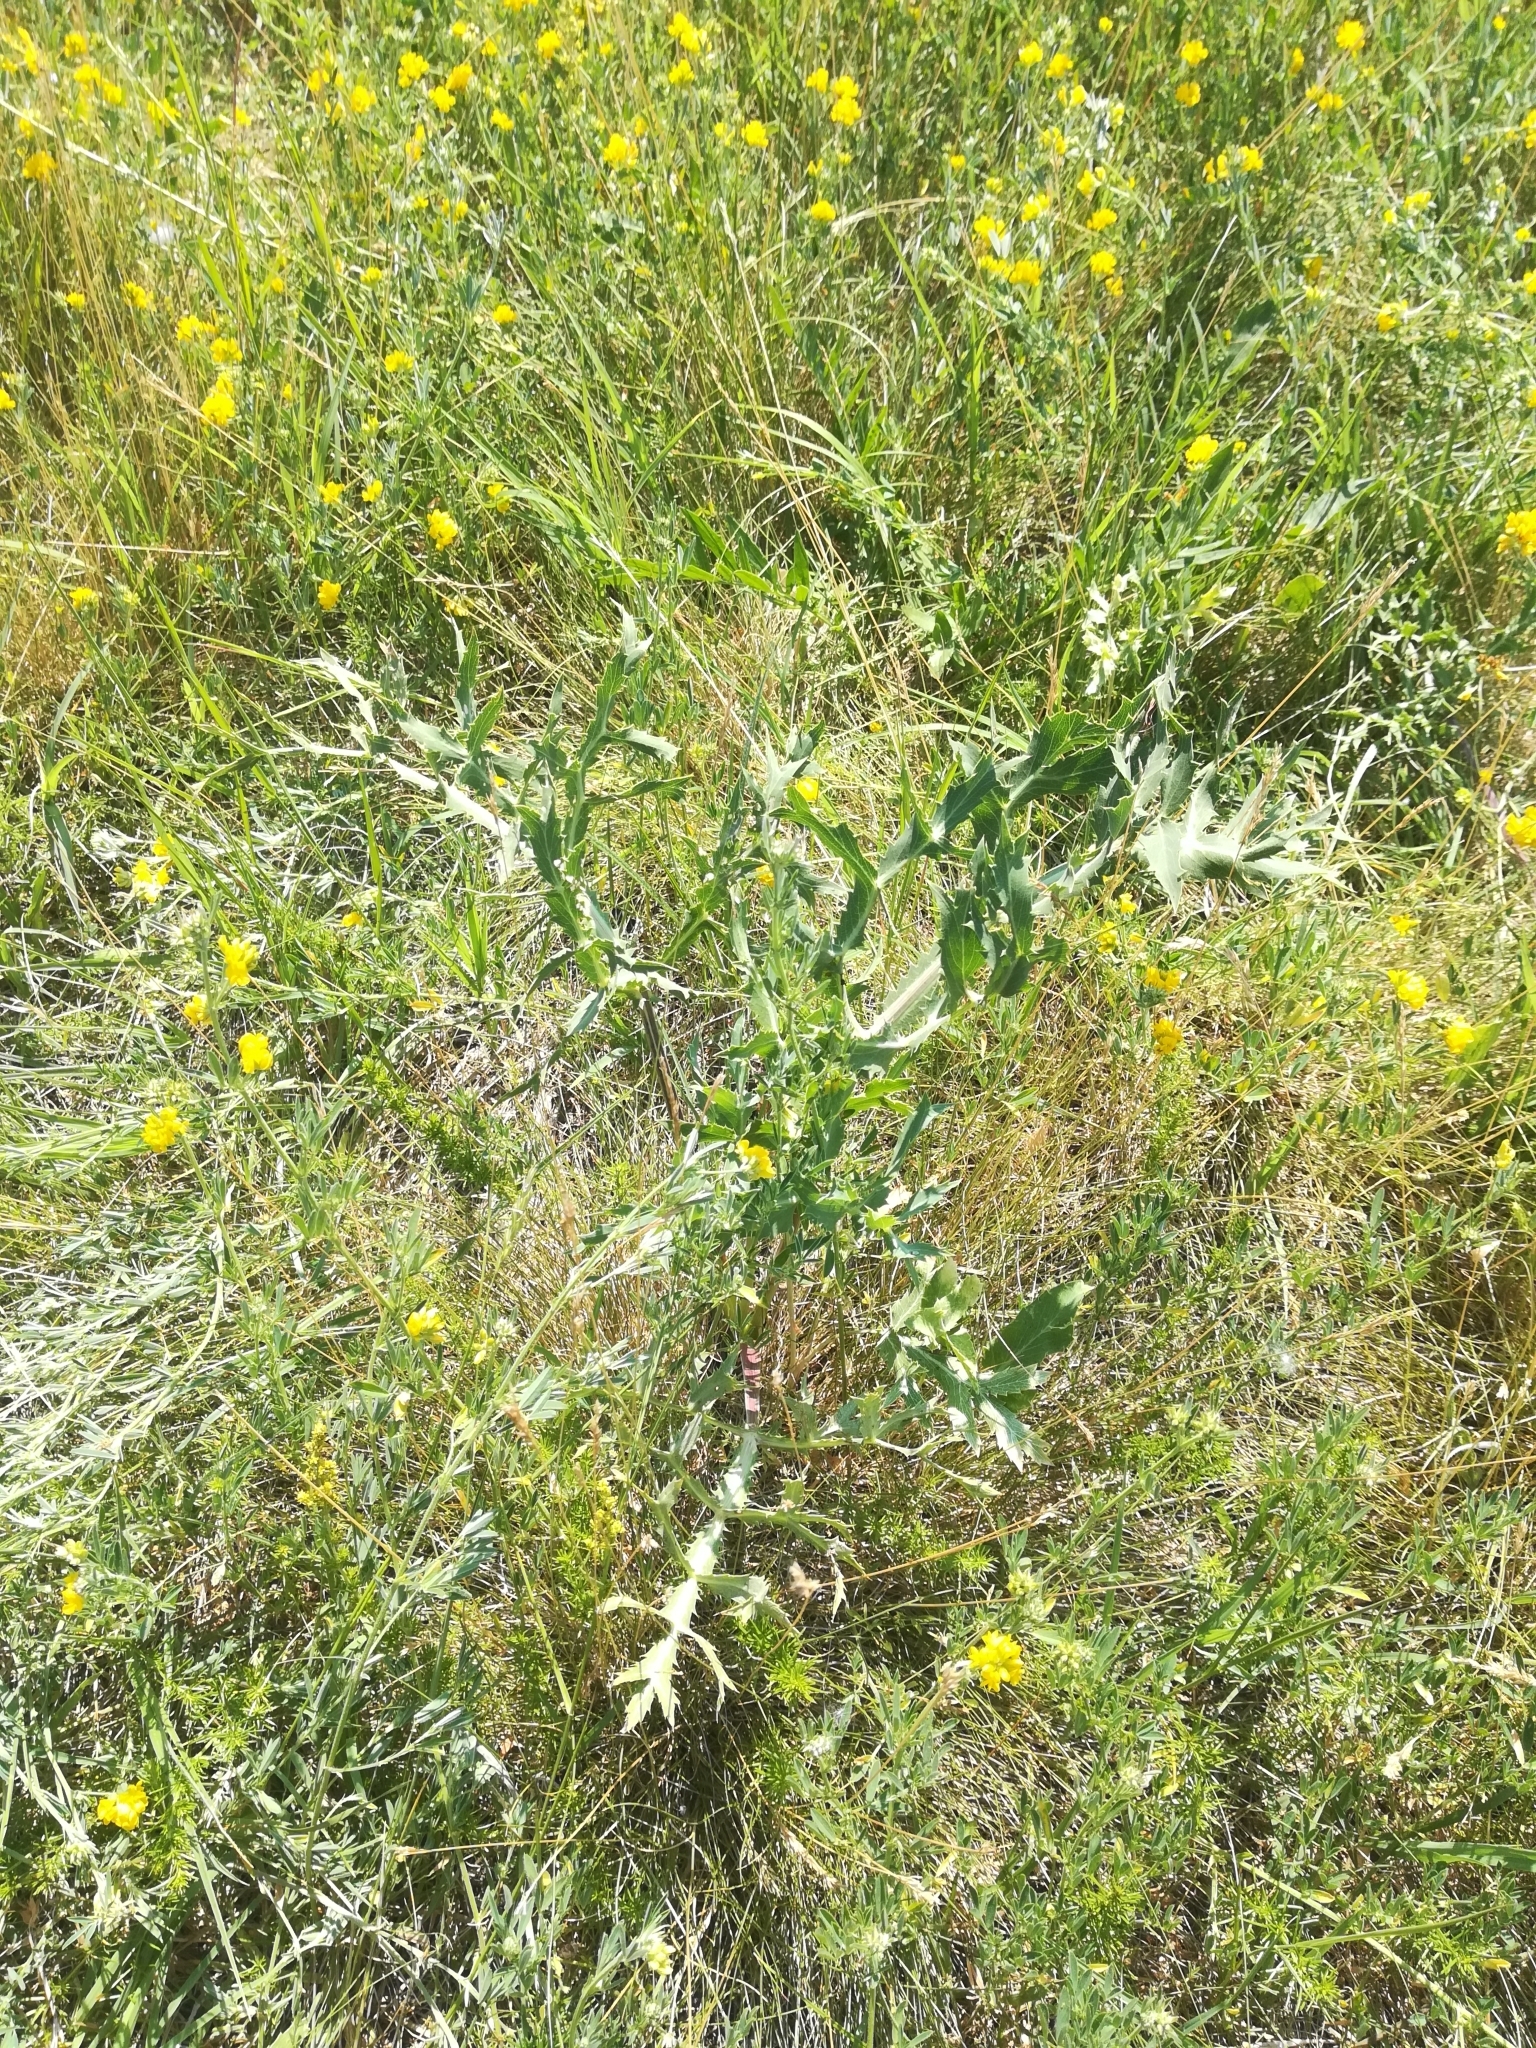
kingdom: Plantae
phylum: Tracheophyta
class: Magnoliopsida
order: Apiales
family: Apiaceae
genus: Eryngium
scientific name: Eryngium campestre
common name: Field eryngo
